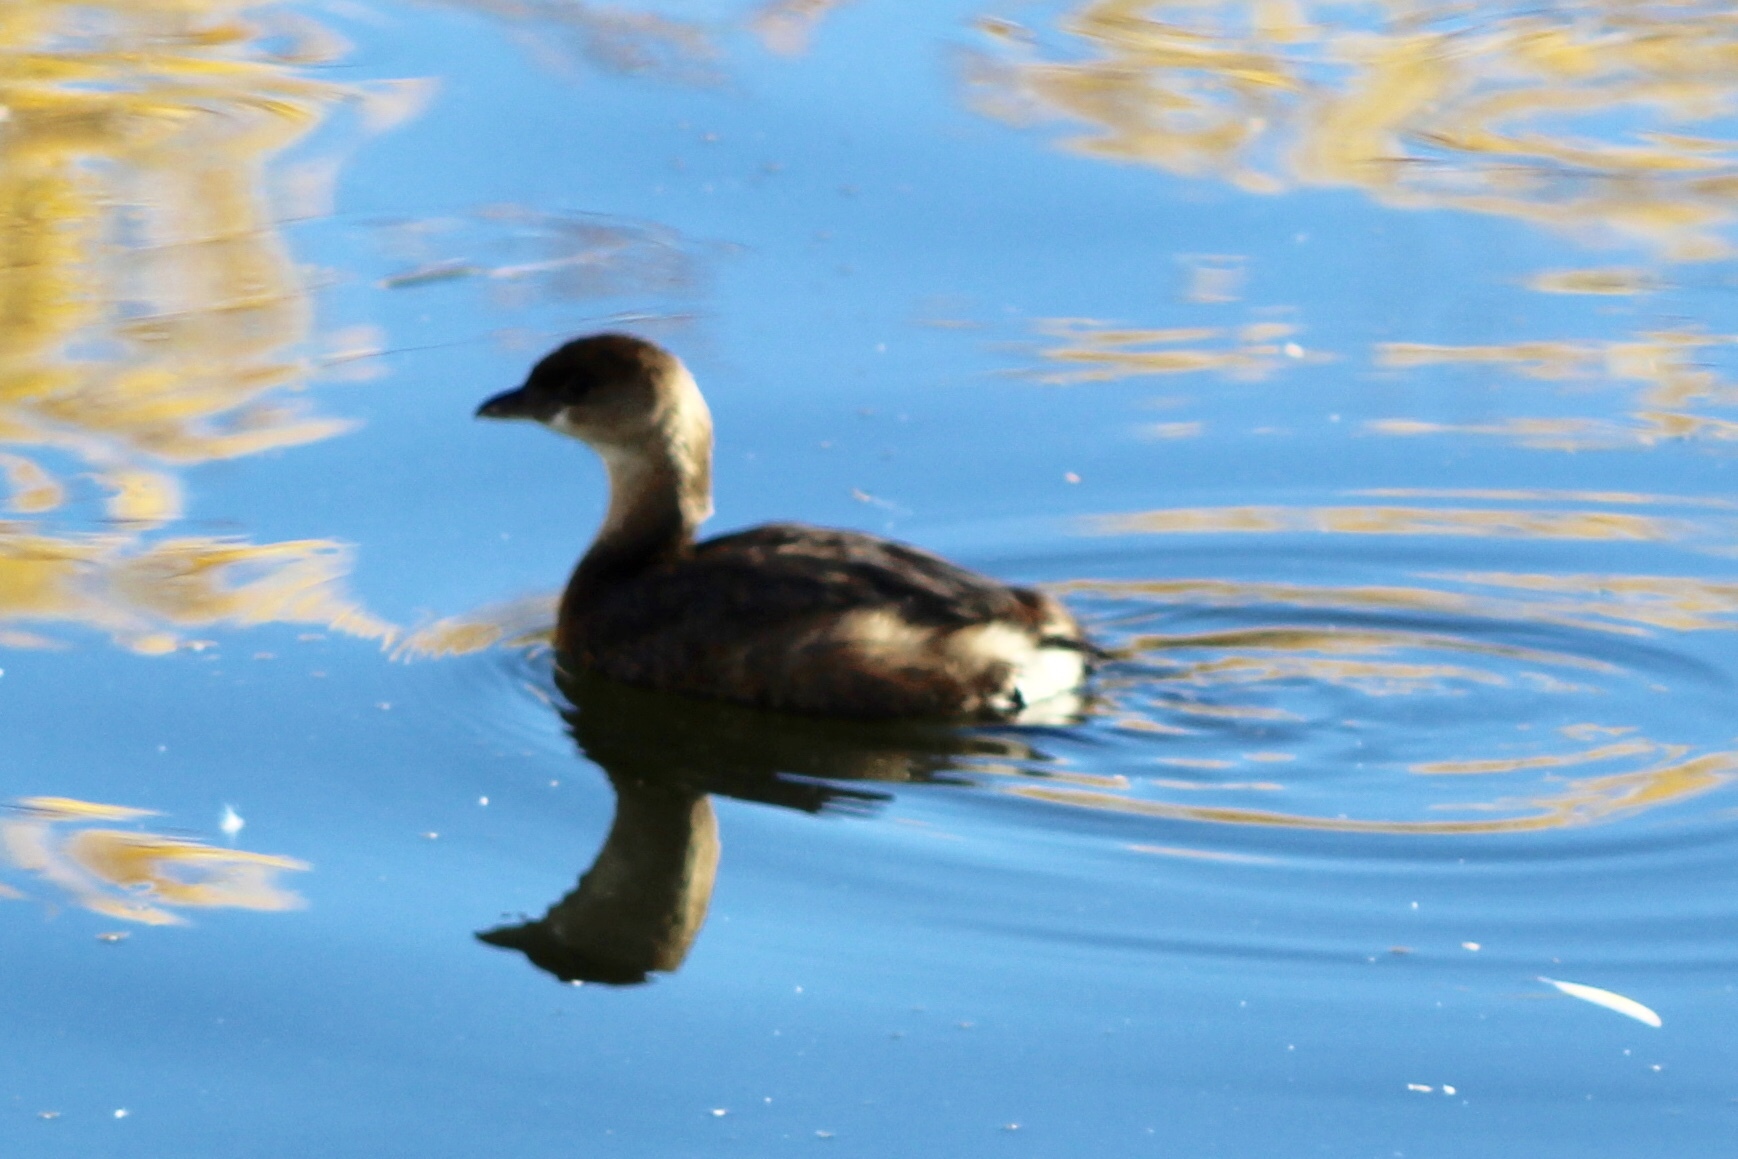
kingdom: Animalia
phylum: Chordata
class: Aves
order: Podicipediformes
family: Podicipedidae
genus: Podilymbus
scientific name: Podilymbus podiceps
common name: Pied-billed grebe
